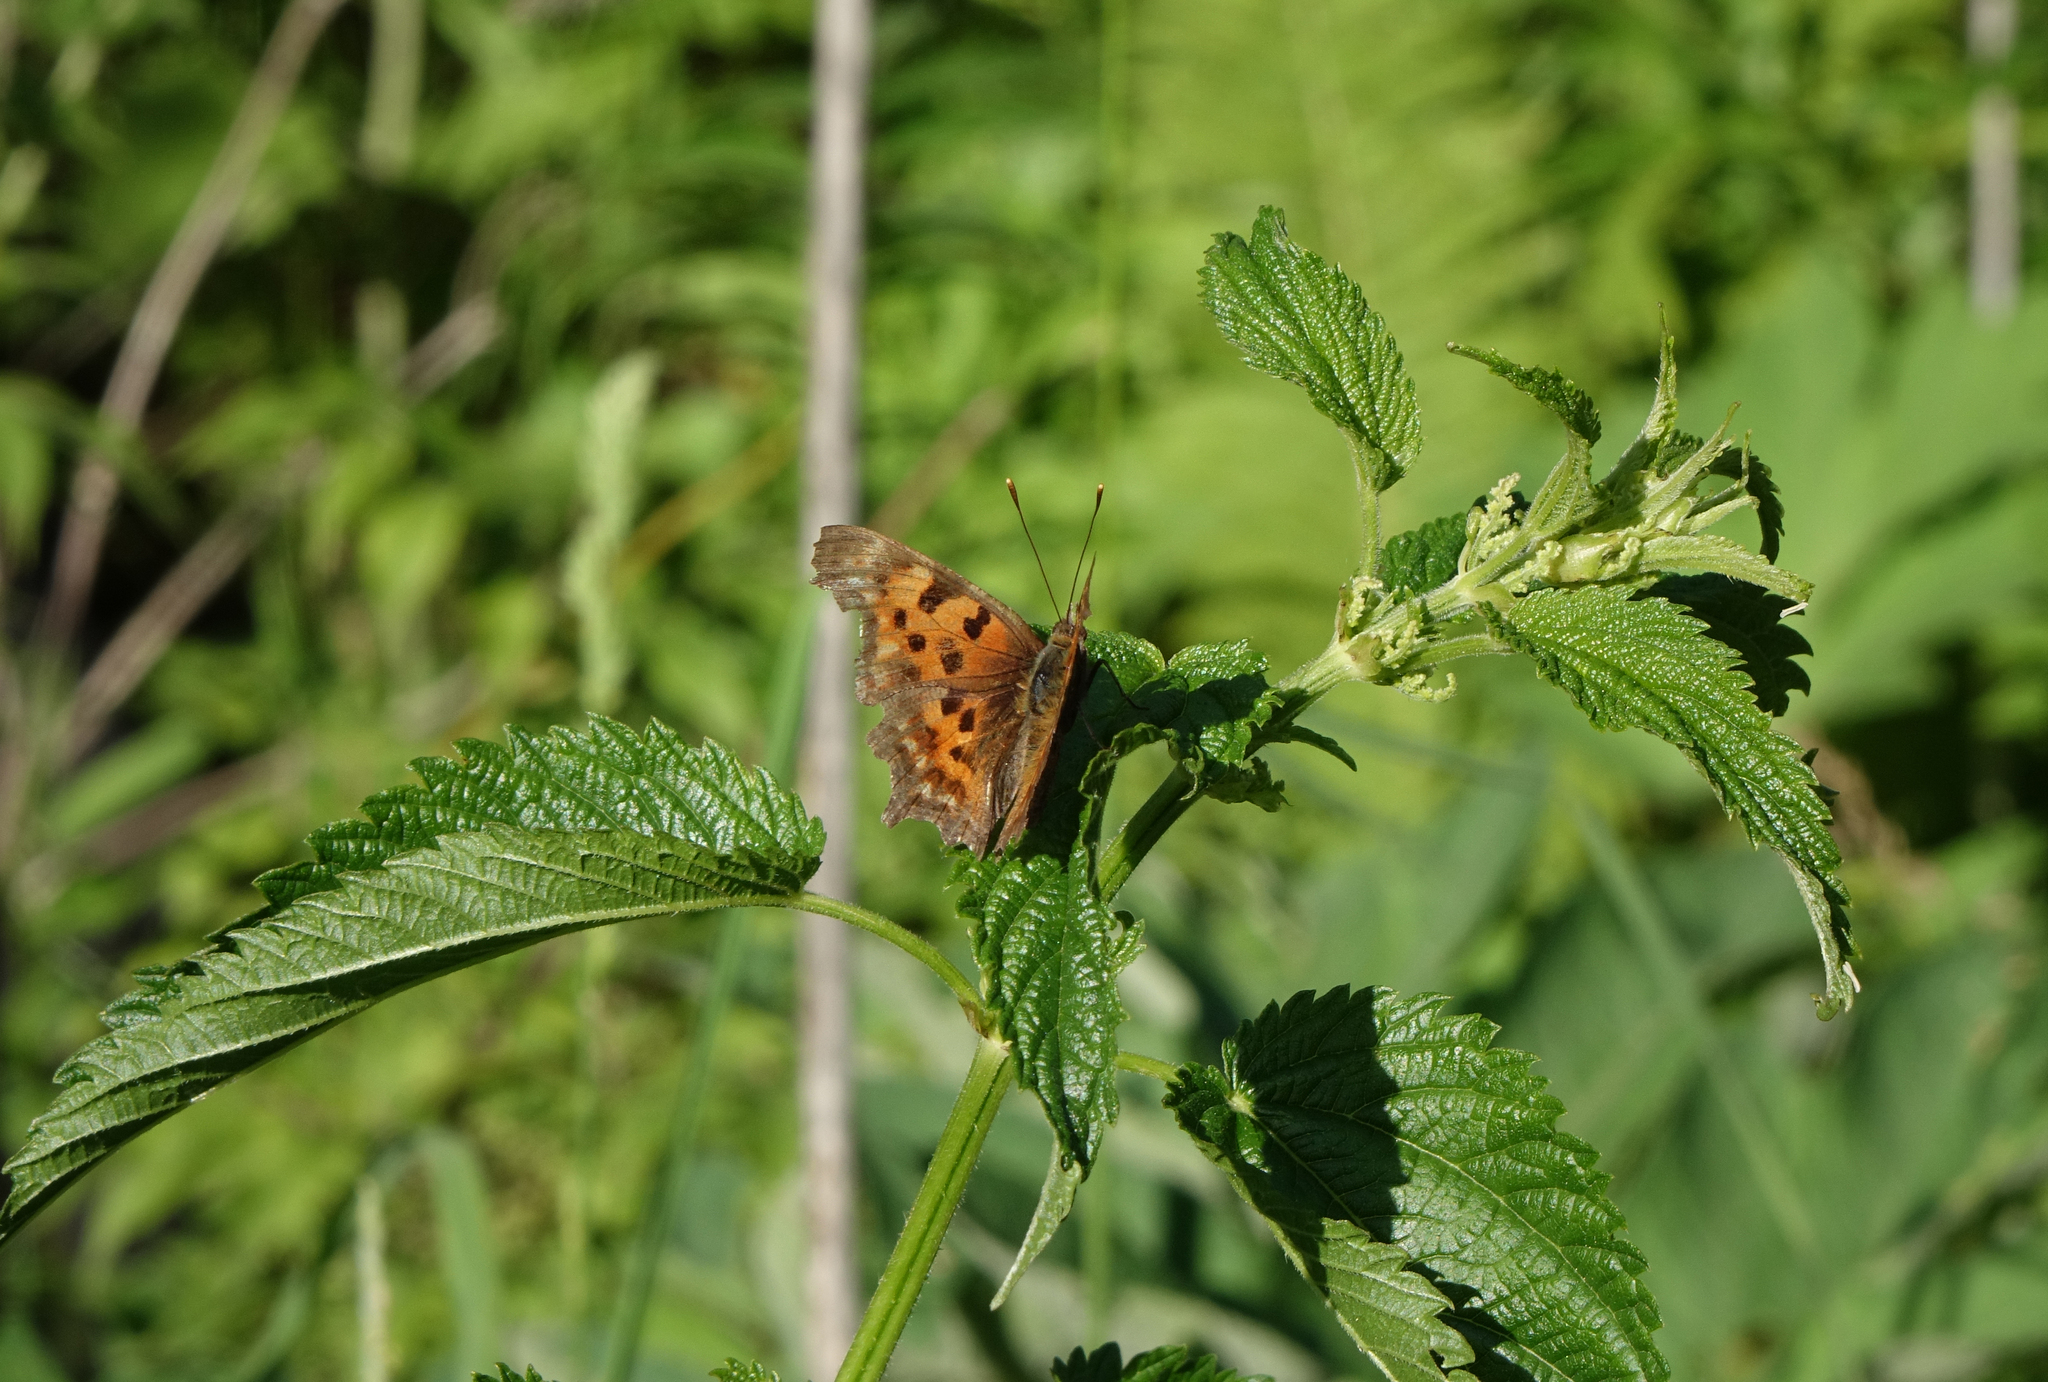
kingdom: Animalia
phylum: Arthropoda
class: Insecta
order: Lepidoptera
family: Nymphalidae
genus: Polygonia
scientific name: Polygonia c-album
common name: Comma
